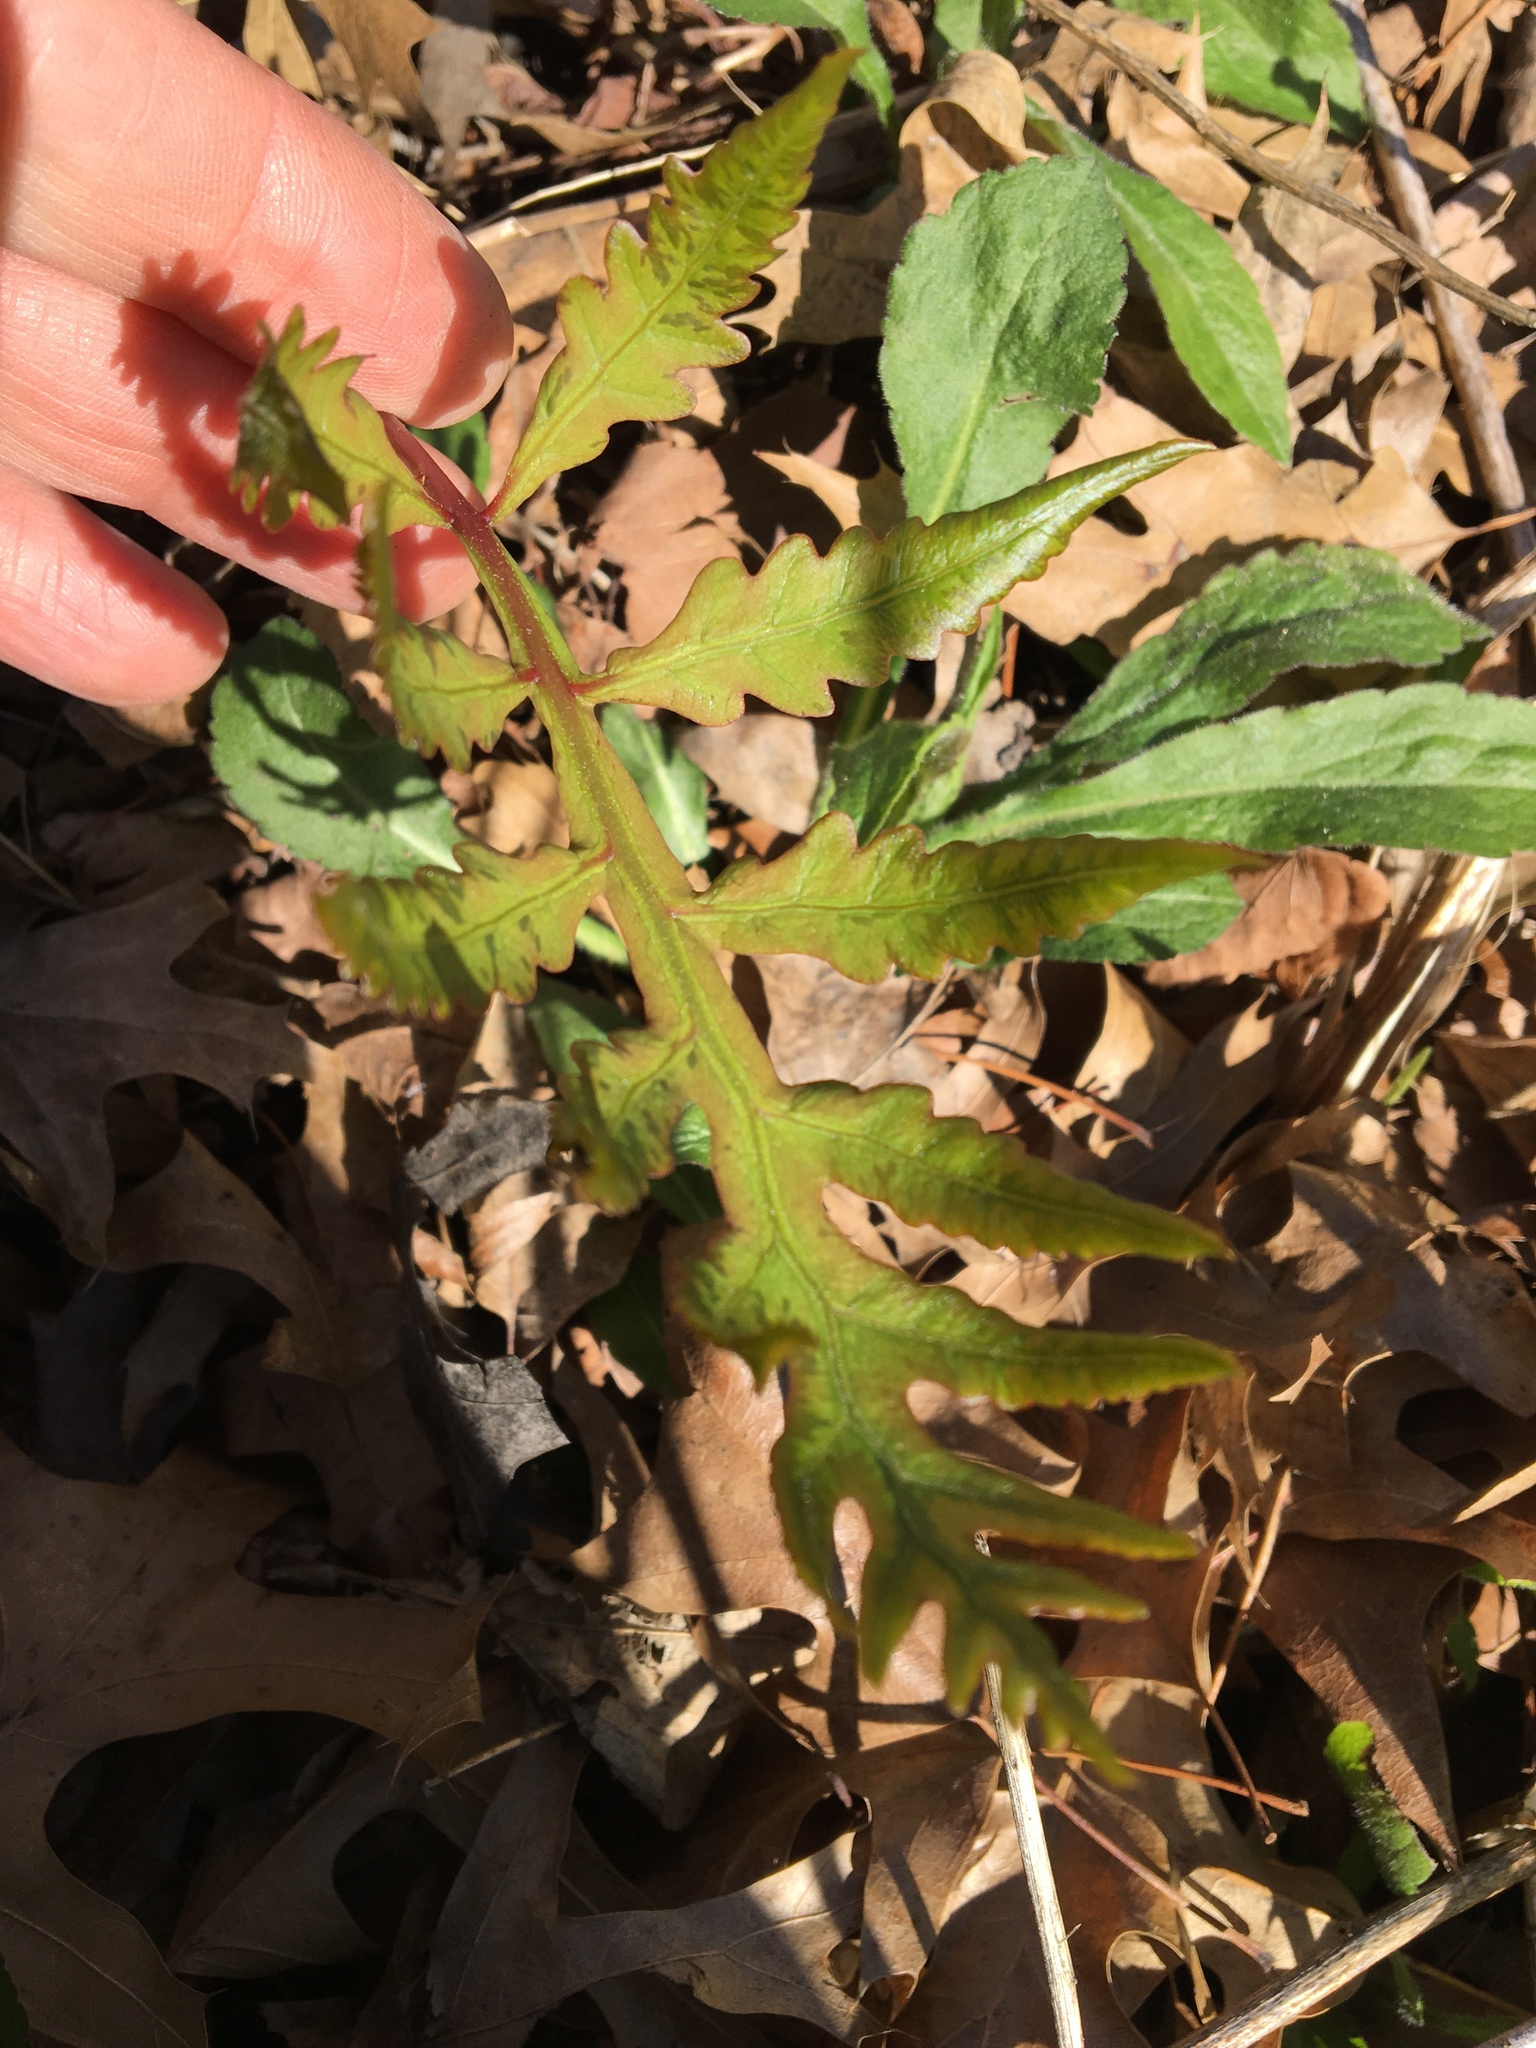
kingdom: Plantae
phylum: Tracheophyta
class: Polypodiopsida
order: Polypodiales
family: Onocleaceae
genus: Onoclea
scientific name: Onoclea sensibilis
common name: Sensitive fern
